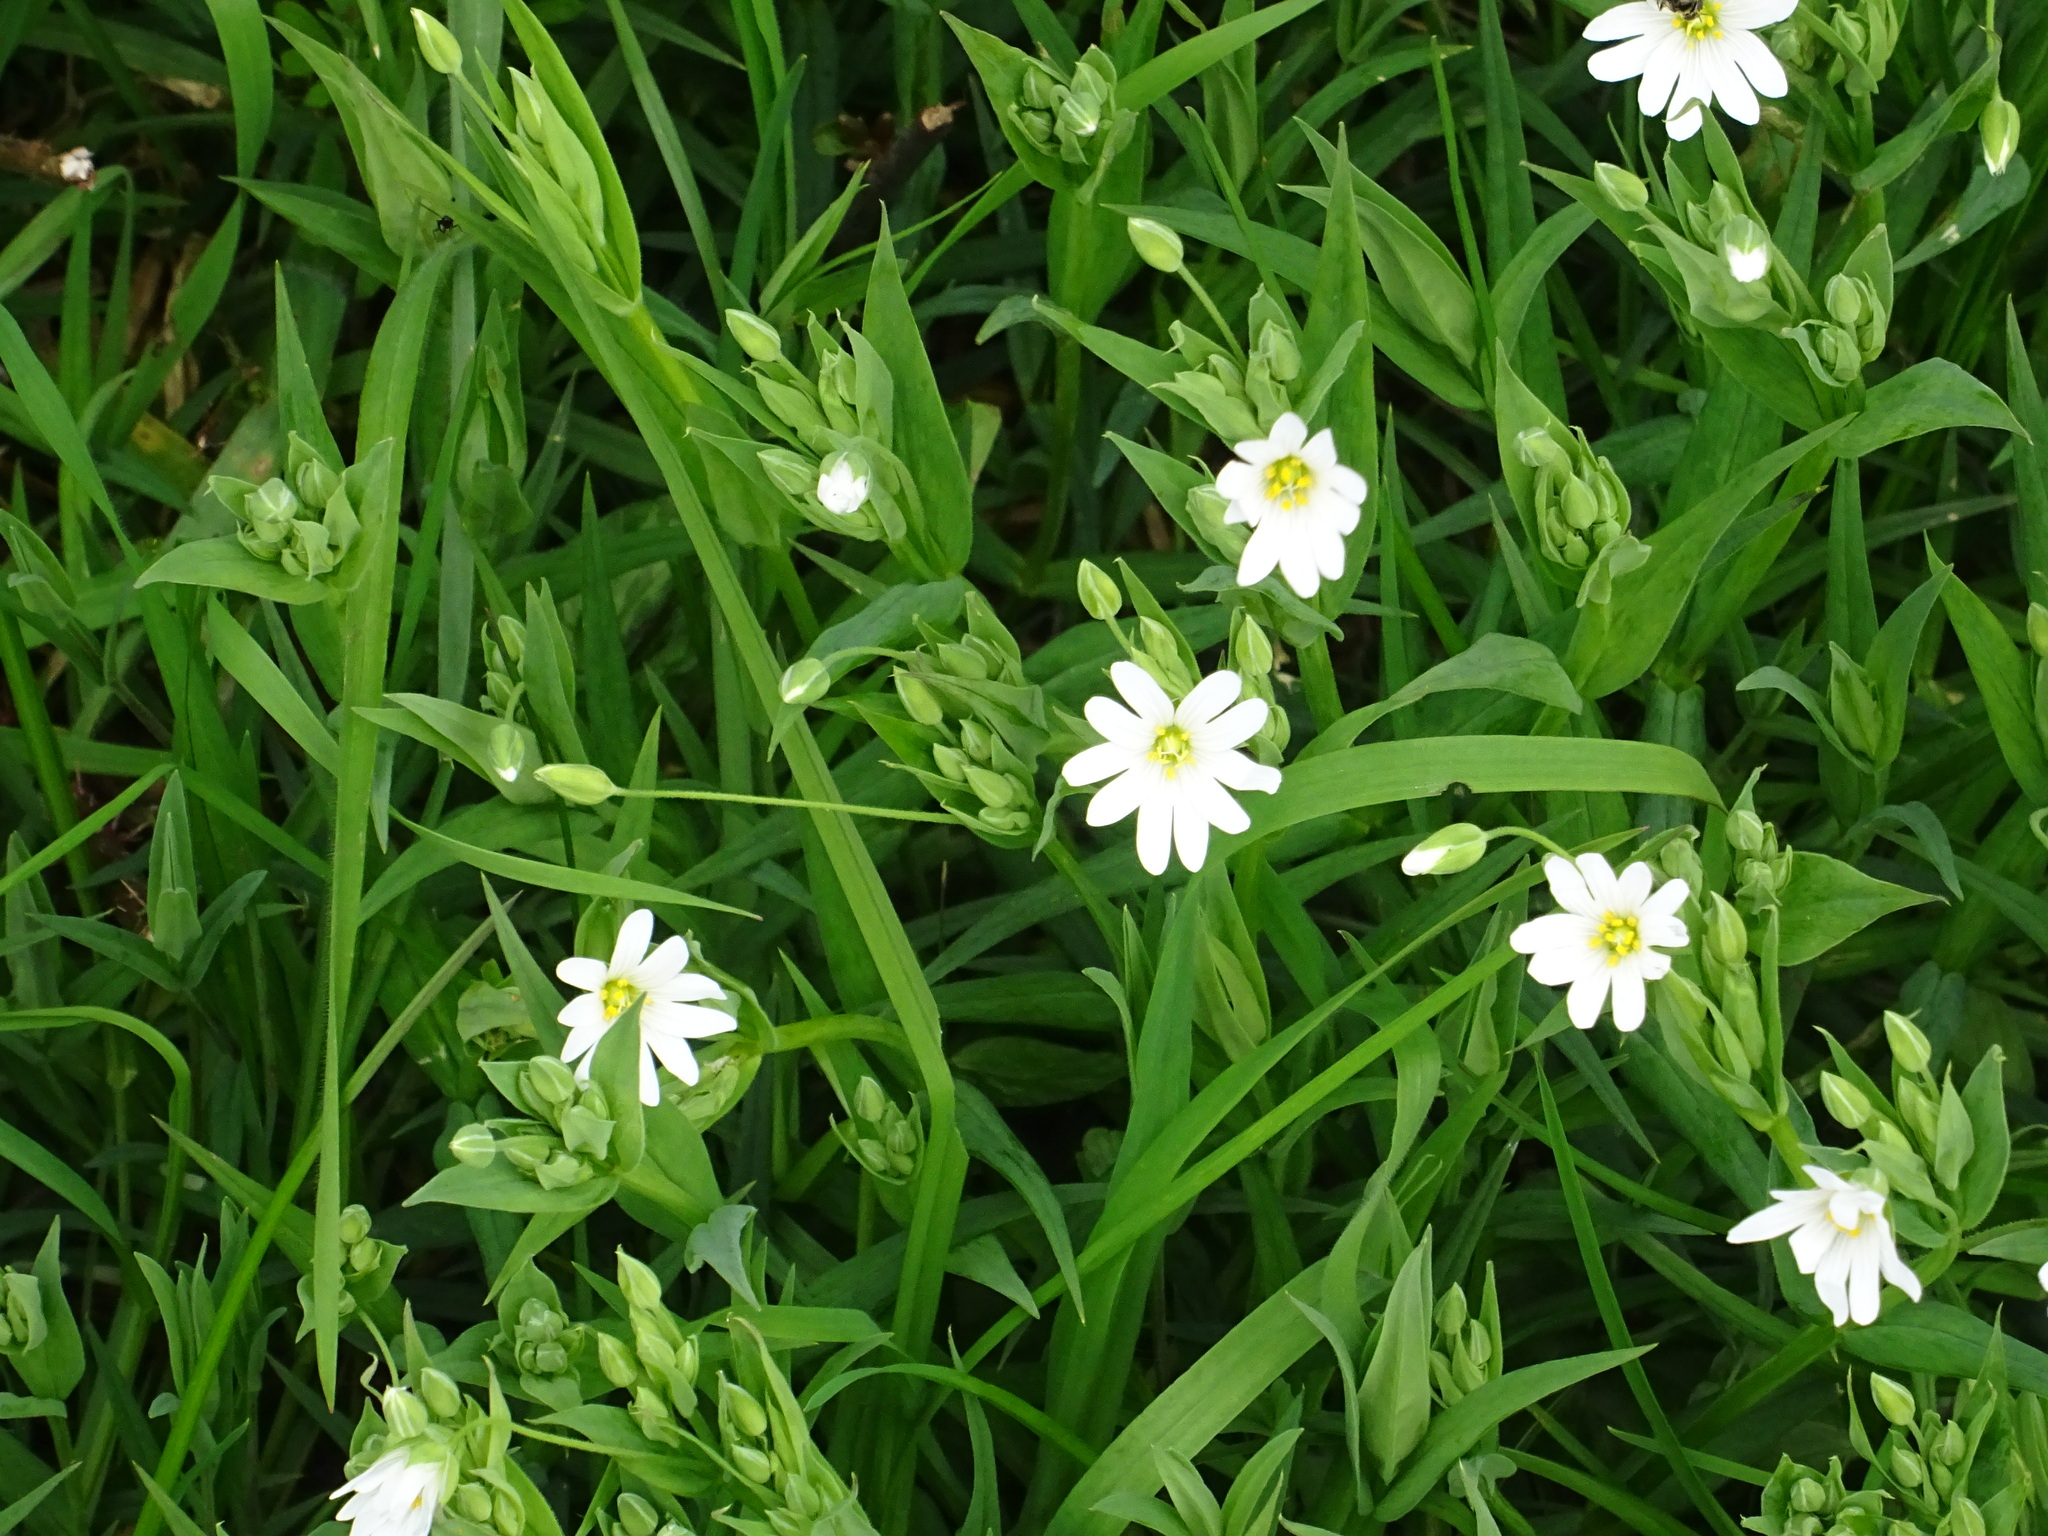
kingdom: Plantae
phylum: Tracheophyta
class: Magnoliopsida
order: Caryophyllales
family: Caryophyllaceae
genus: Rabelera
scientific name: Rabelera holostea
